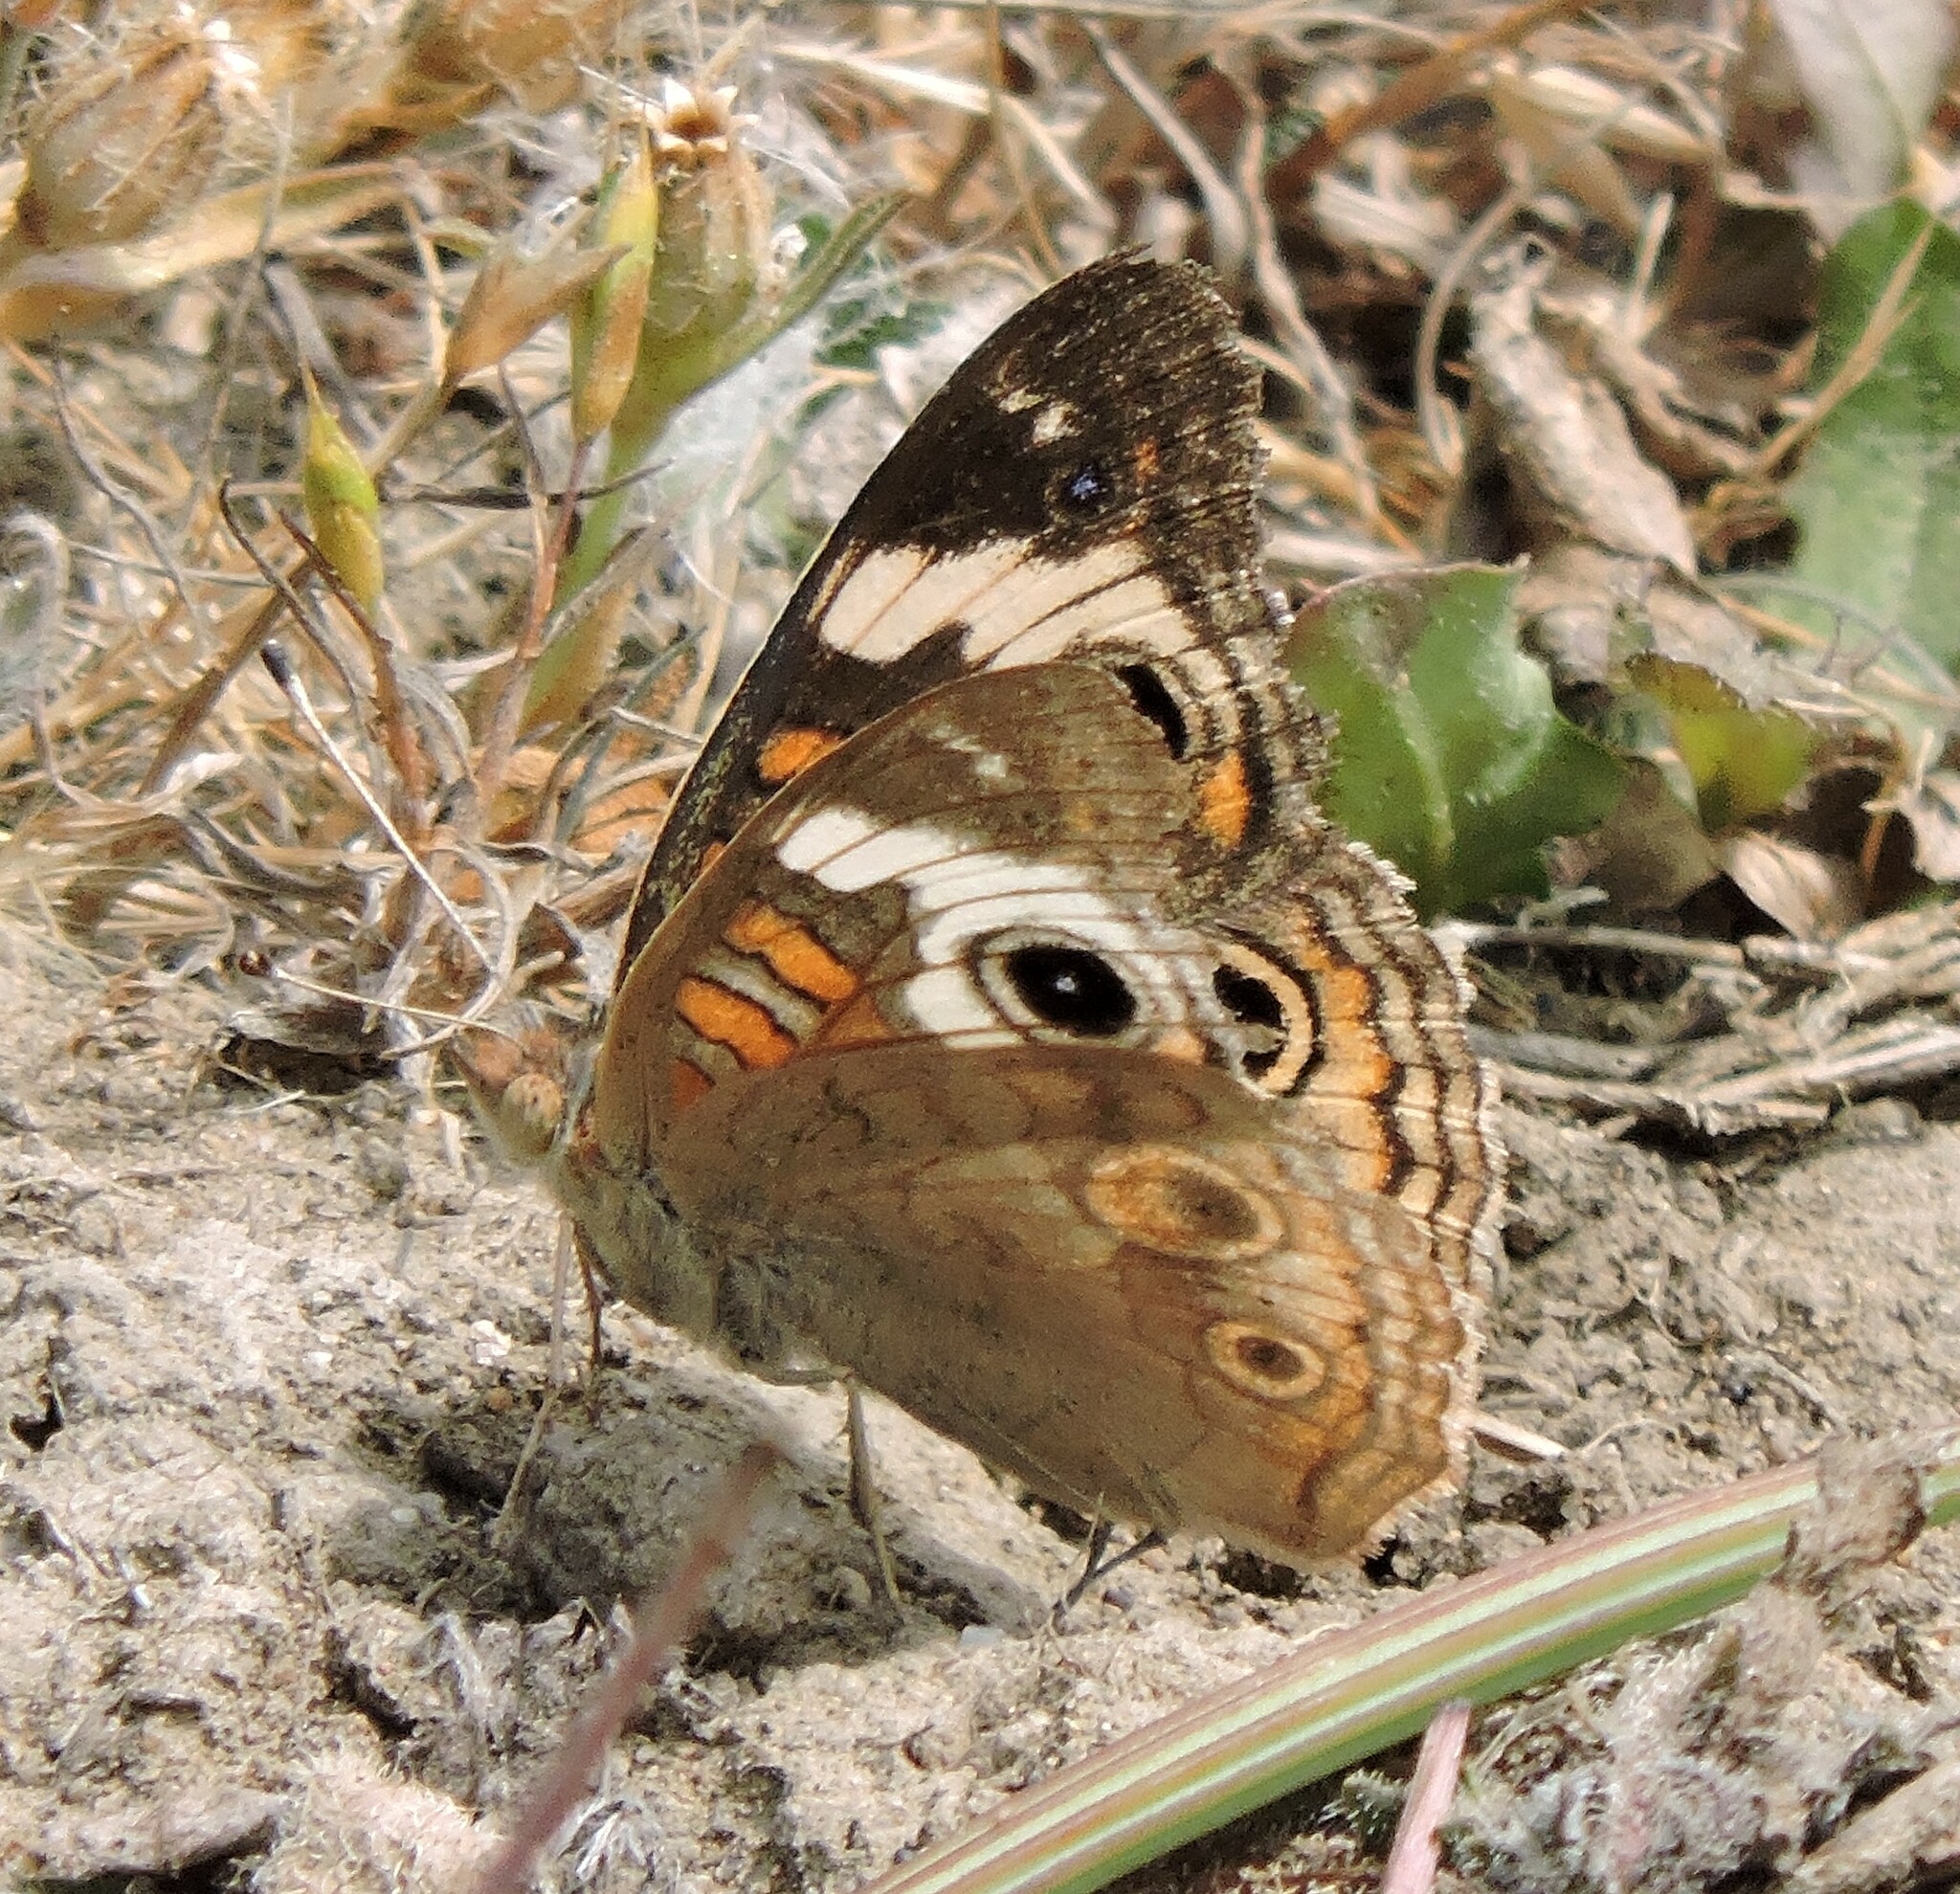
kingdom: Animalia
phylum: Arthropoda
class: Insecta
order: Lepidoptera
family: Nymphalidae
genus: Junonia
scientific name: Junonia grisea
